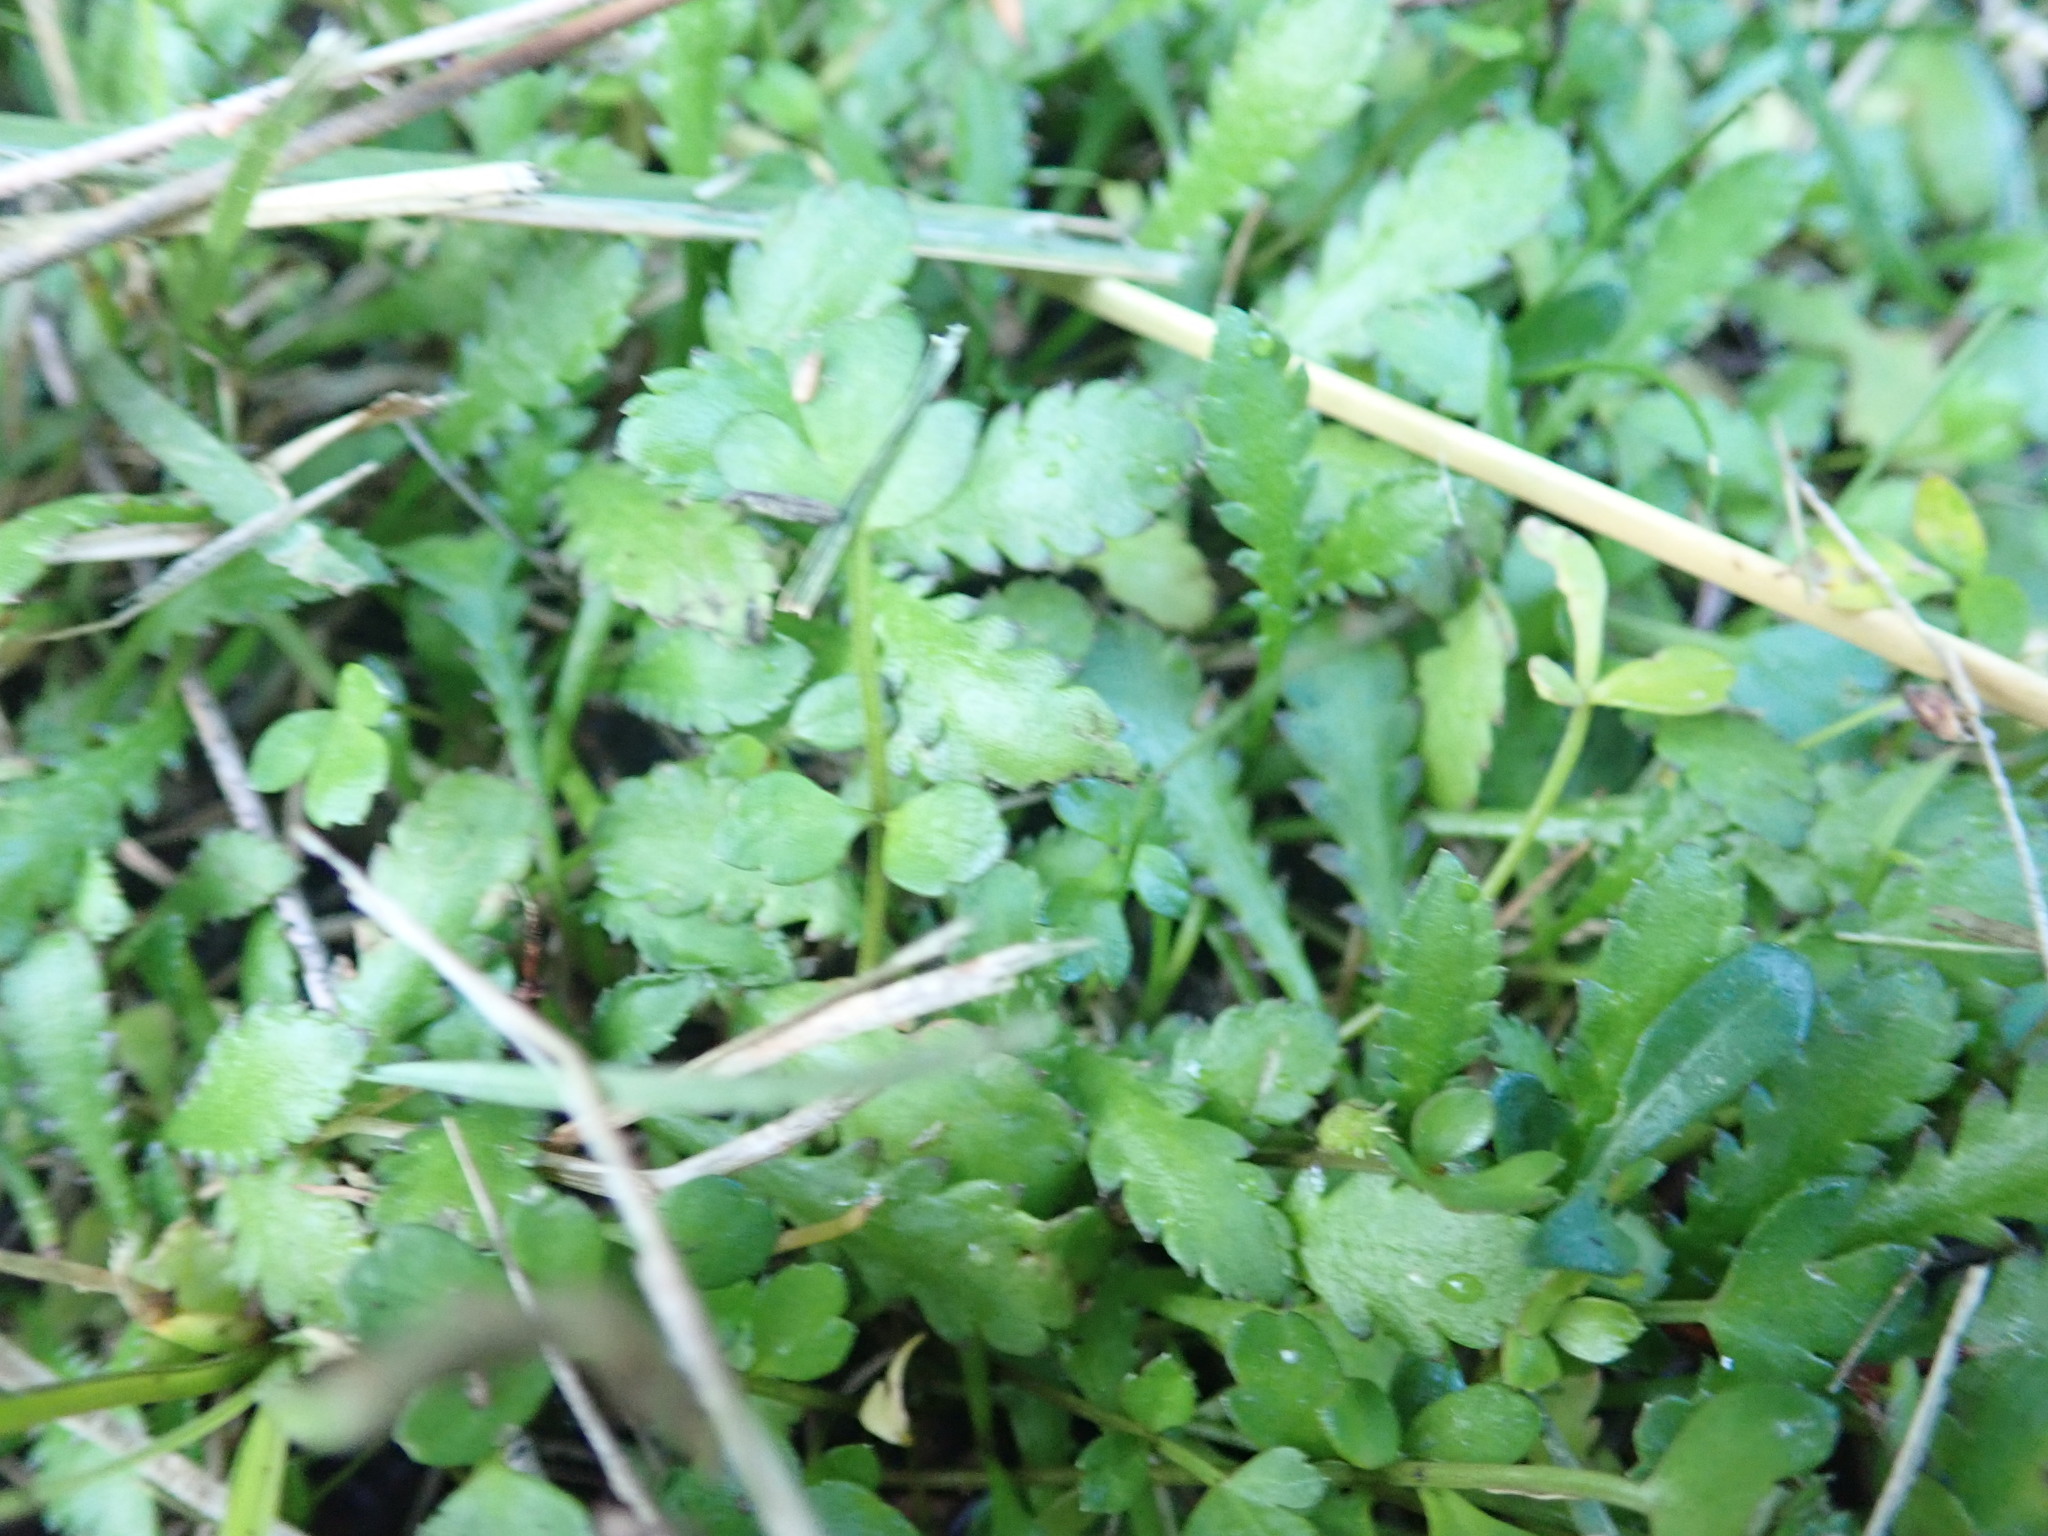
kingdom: Plantae
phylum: Tracheophyta
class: Magnoliopsida
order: Asterales
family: Asteraceae
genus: Leptinella
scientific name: Leptinella dioica
